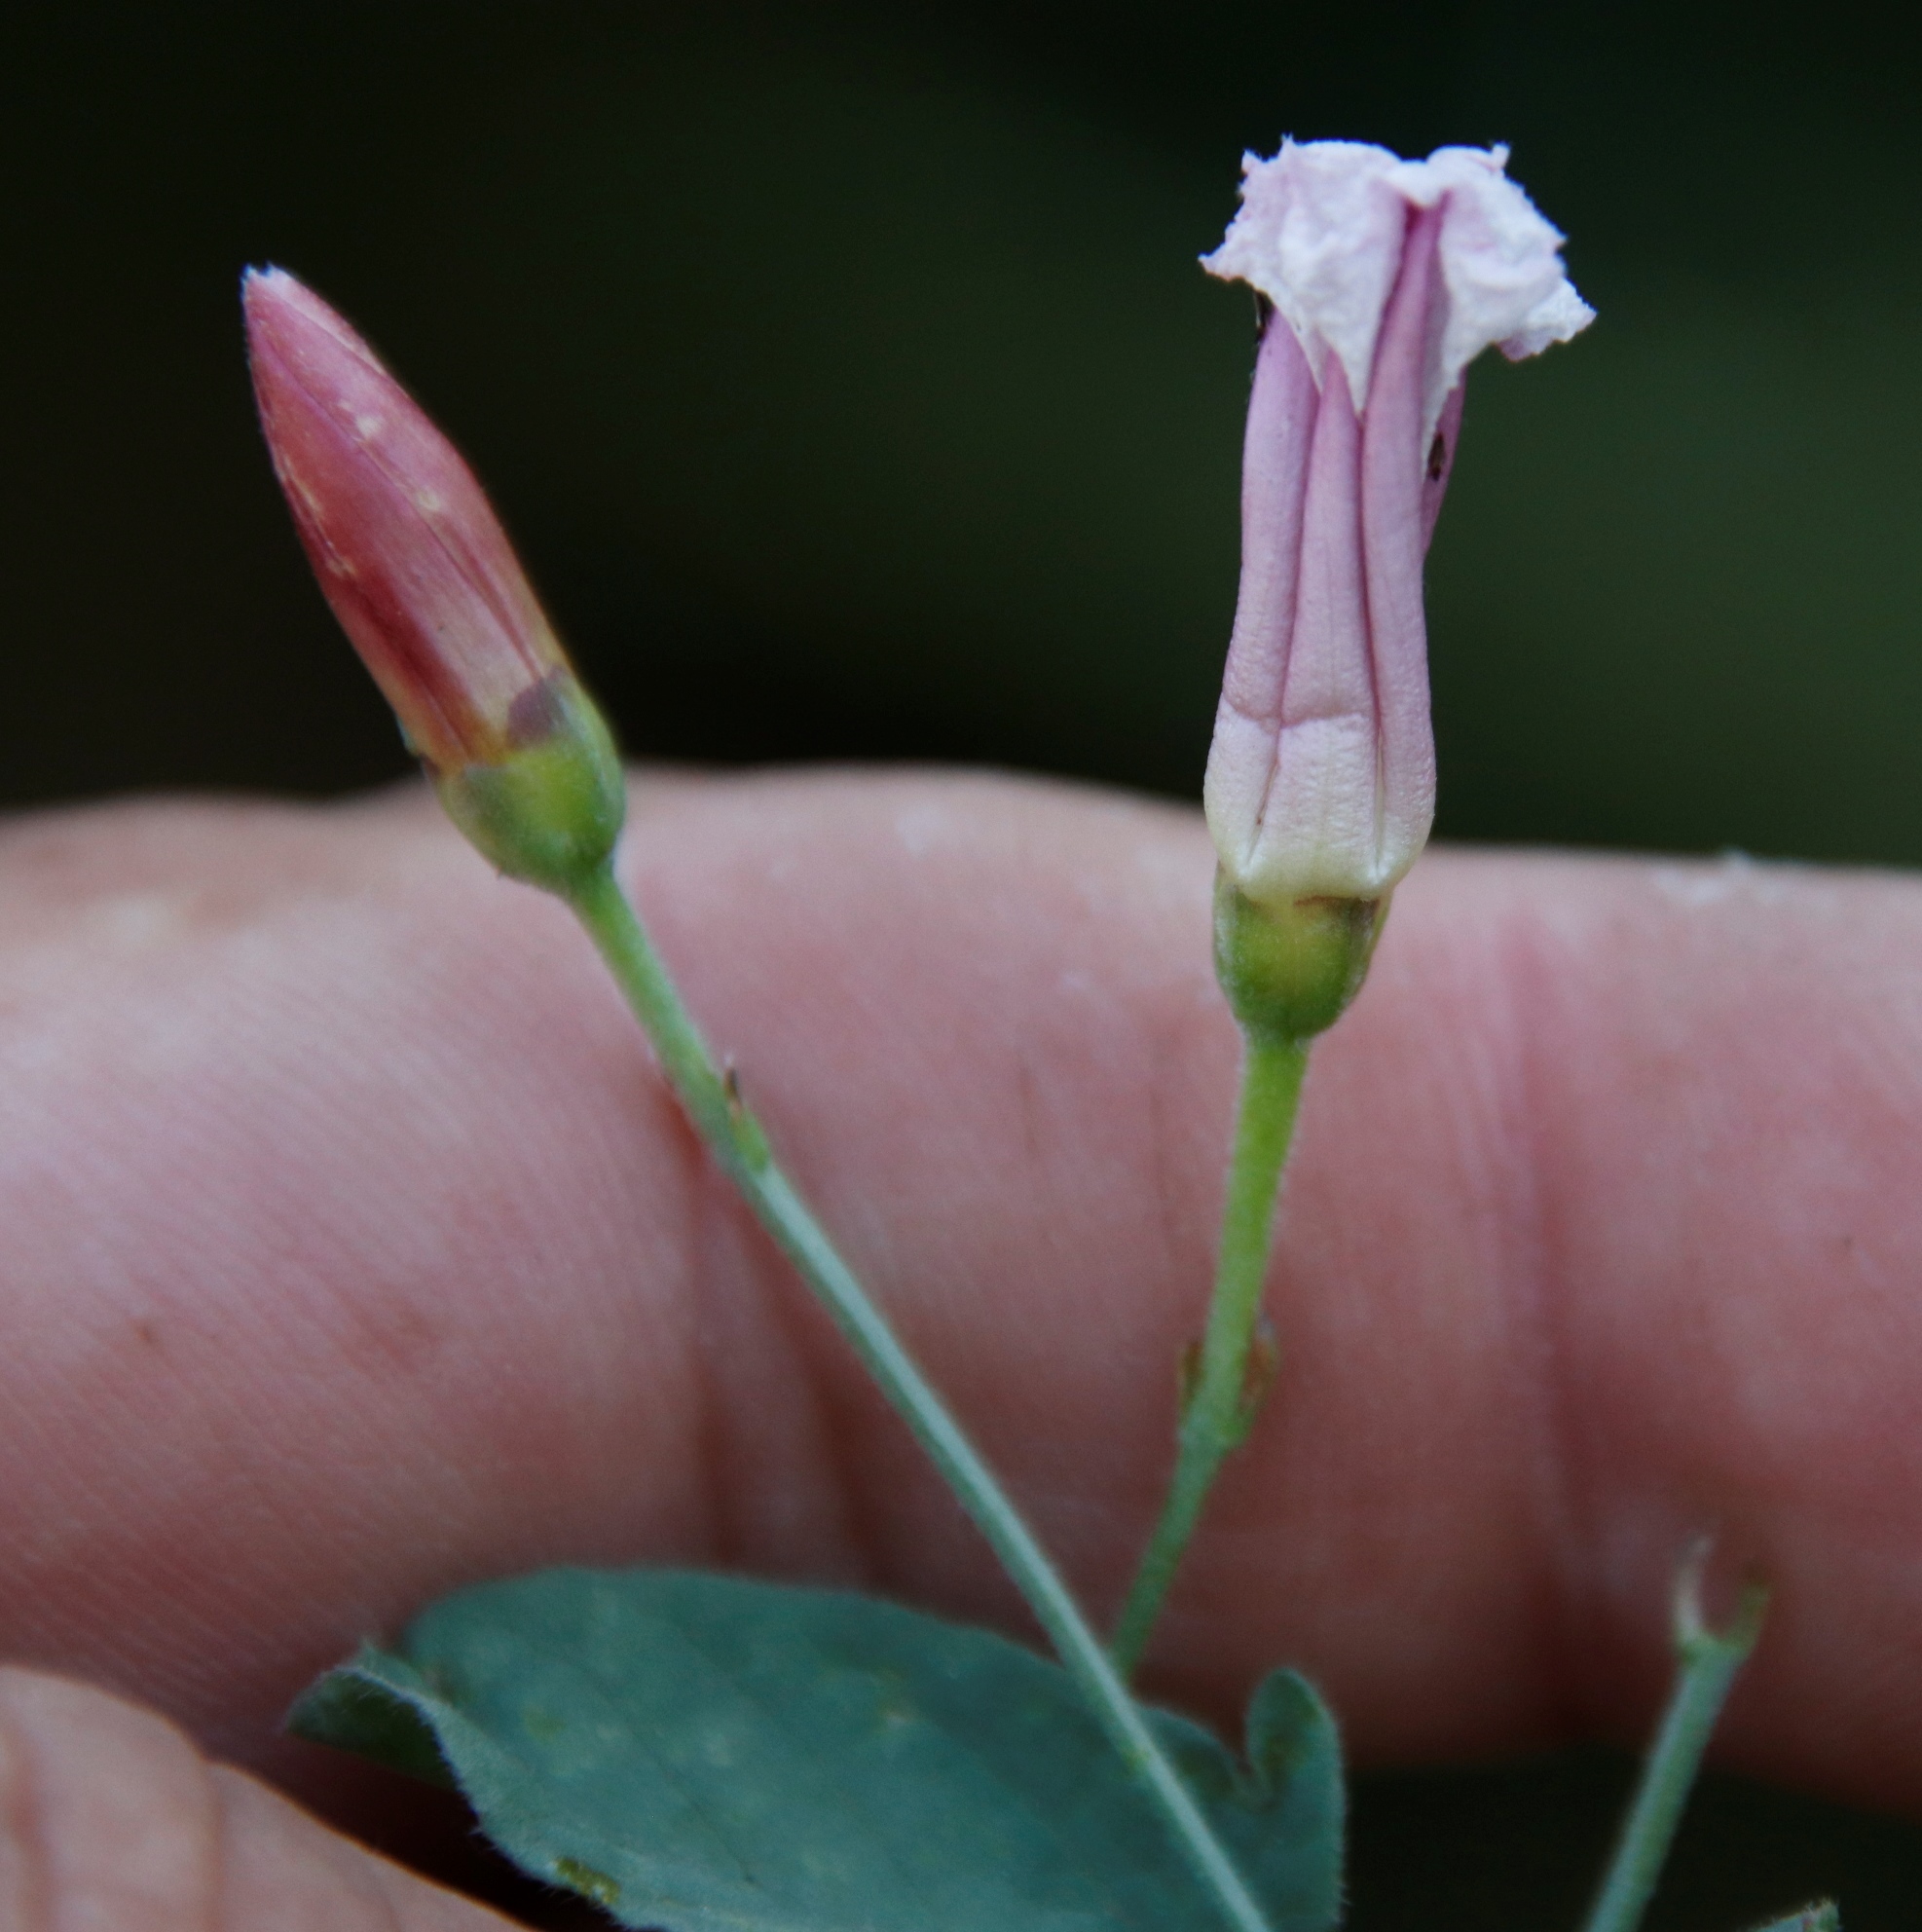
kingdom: Plantae
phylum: Tracheophyta
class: Magnoliopsida
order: Solanales
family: Convolvulaceae
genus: Convolvulus
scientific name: Convolvulus arvensis
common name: Field bindweed
